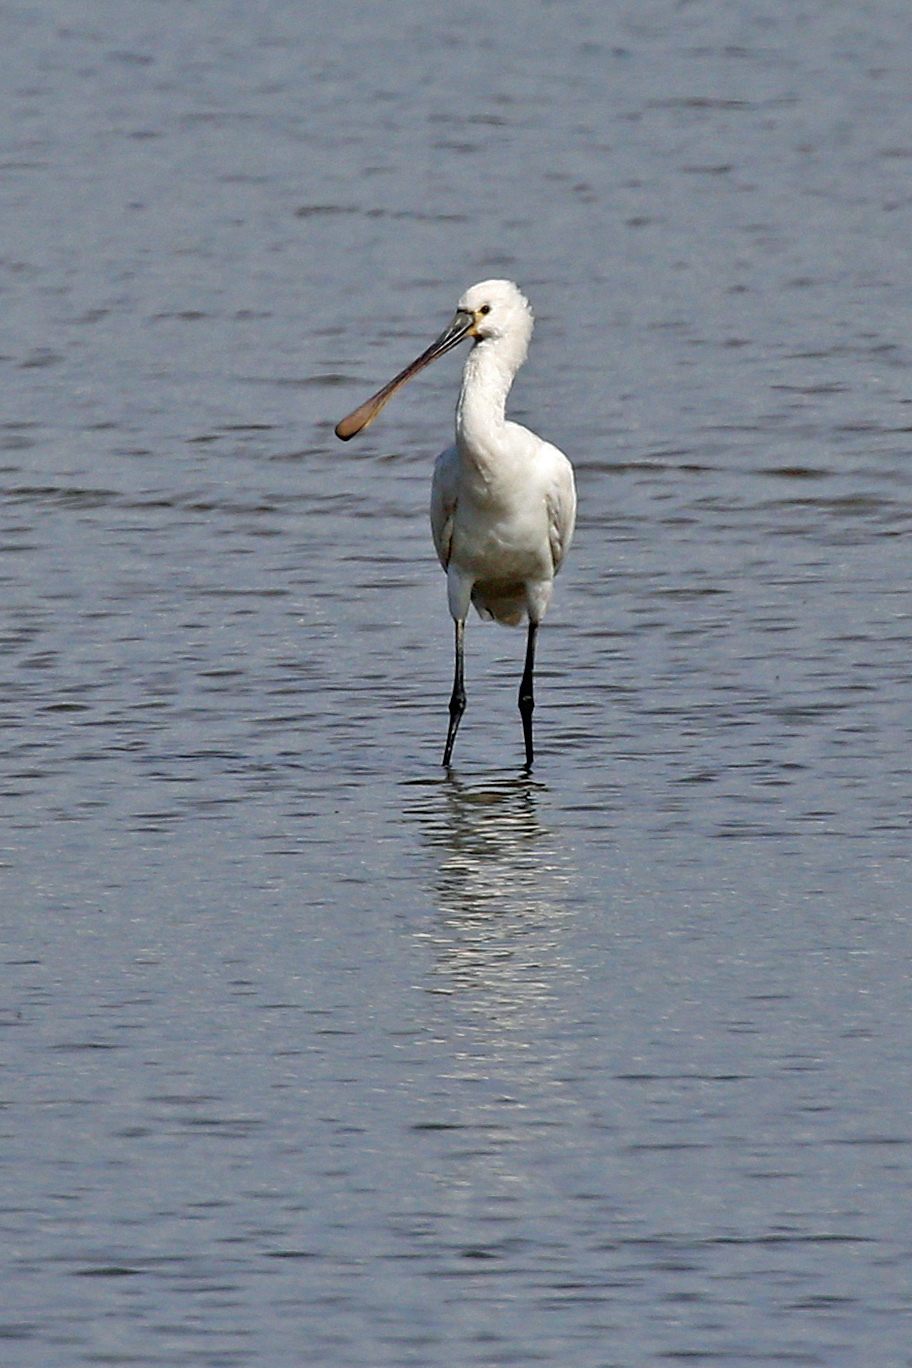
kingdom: Animalia
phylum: Chordata
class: Aves
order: Pelecaniformes
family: Threskiornithidae
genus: Platalea
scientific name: Platalea leucorodia
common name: Eurasian spoonbill
